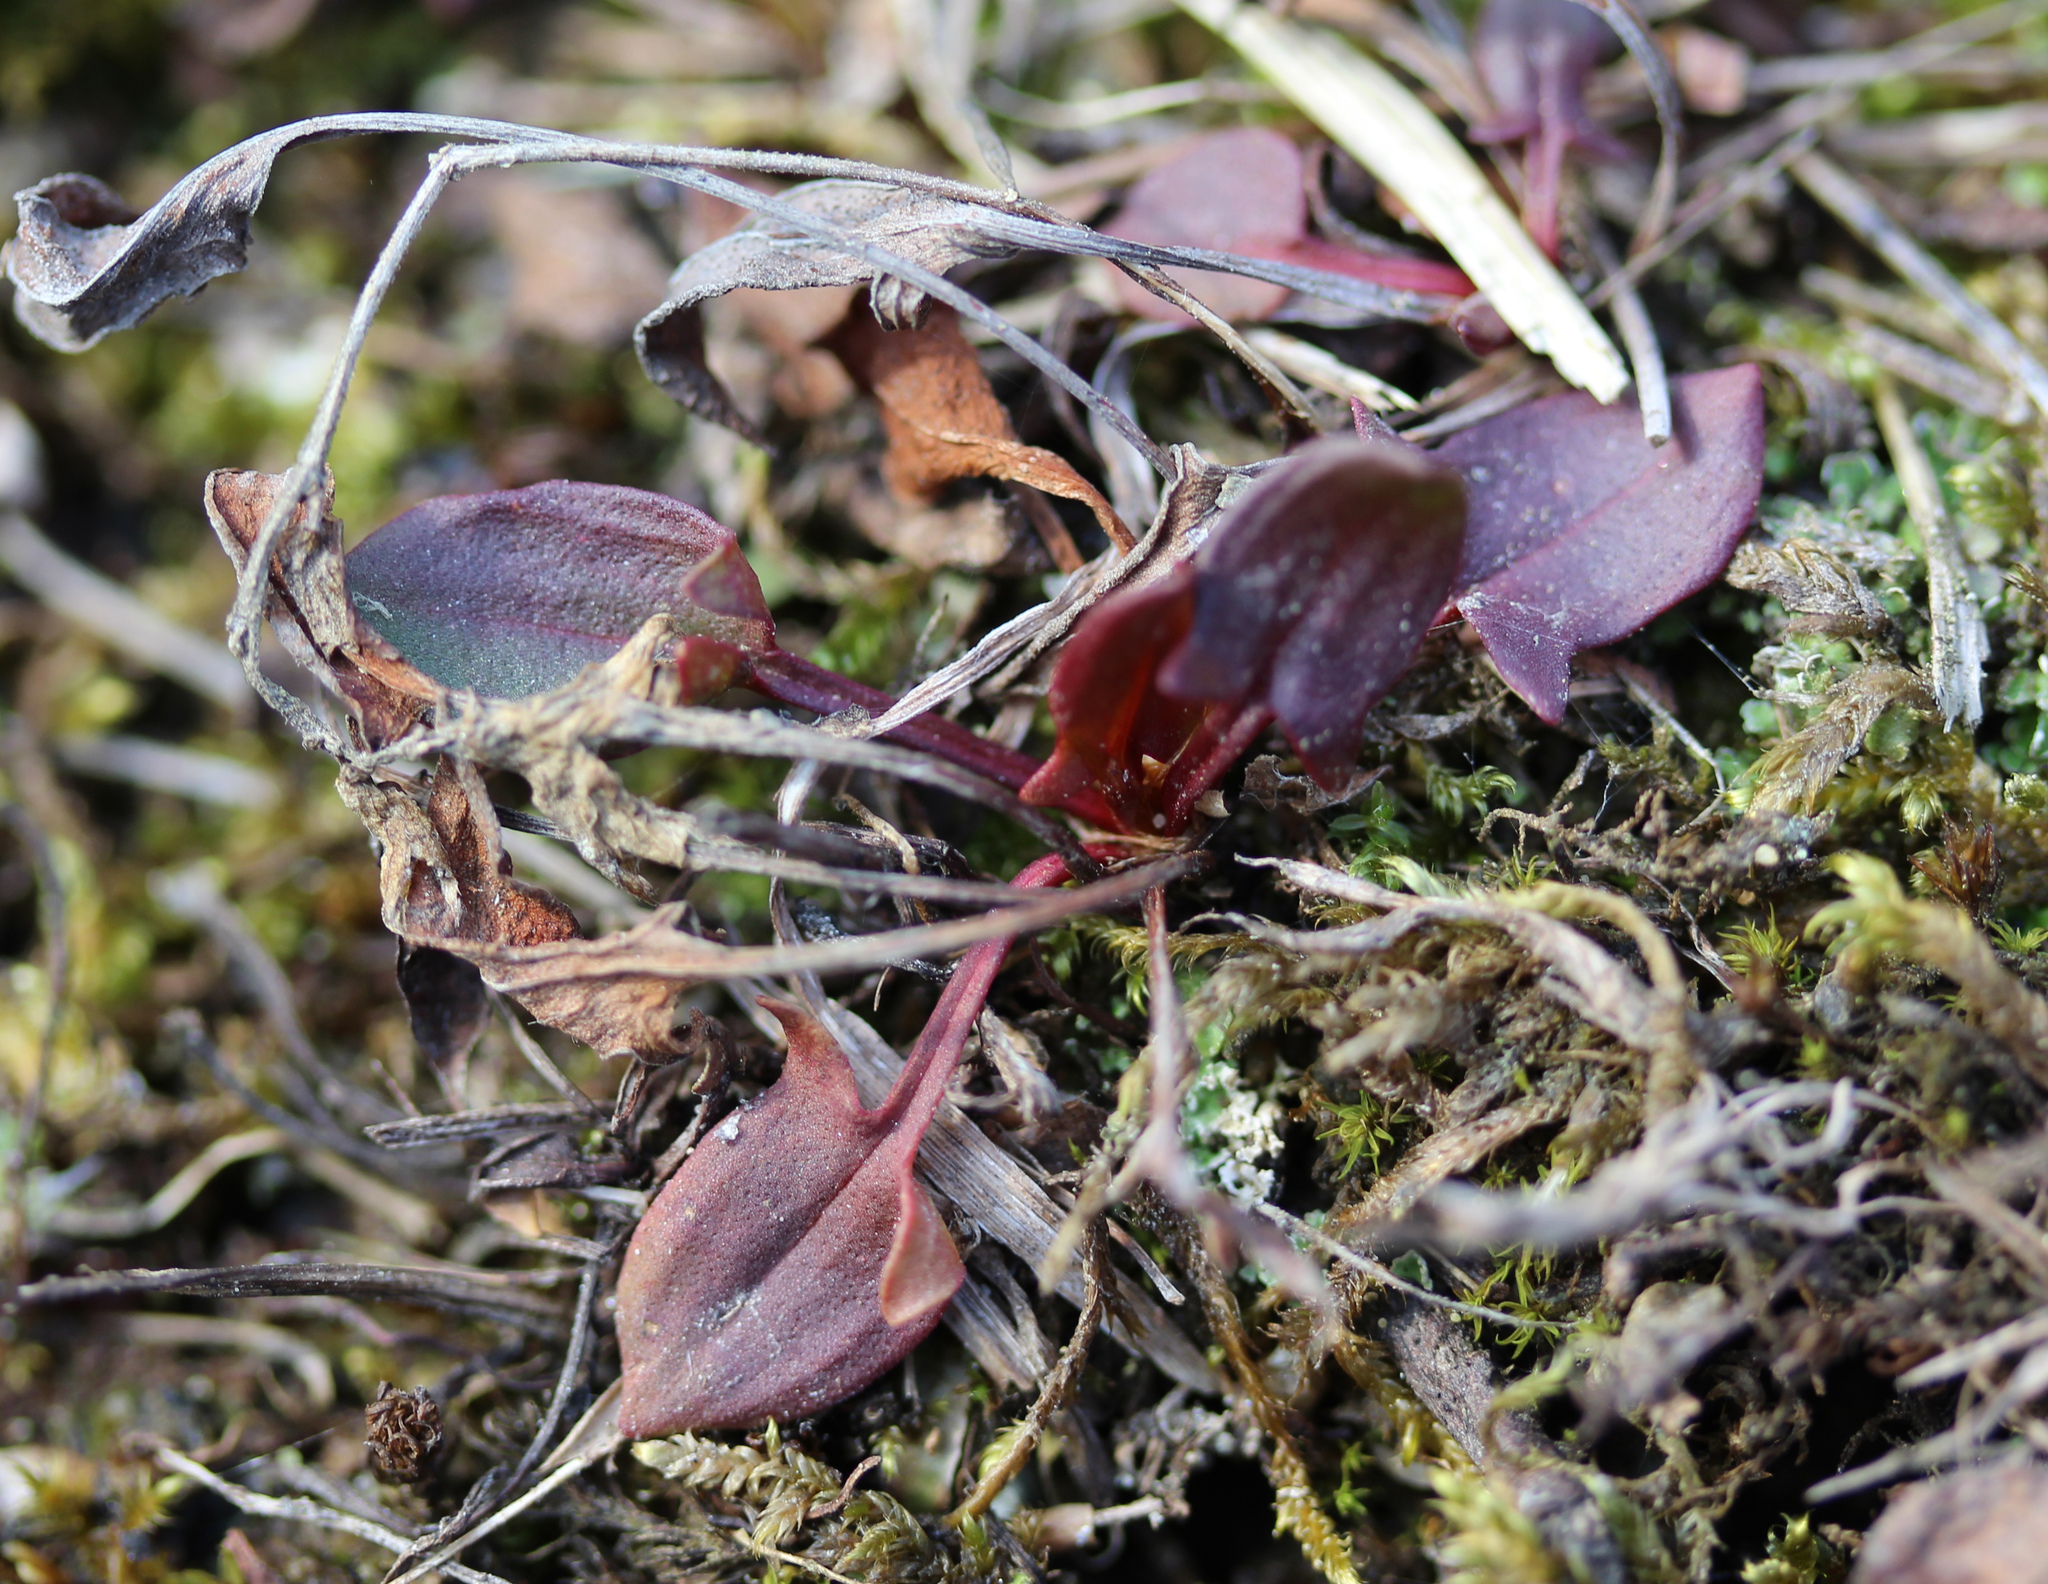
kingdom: Plantae
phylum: Tracheophyta
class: Magnoliopsida
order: Caryophyllales
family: Polygonaceae
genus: Rumex
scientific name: Rumex acetosella
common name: Common sheep sorrel
